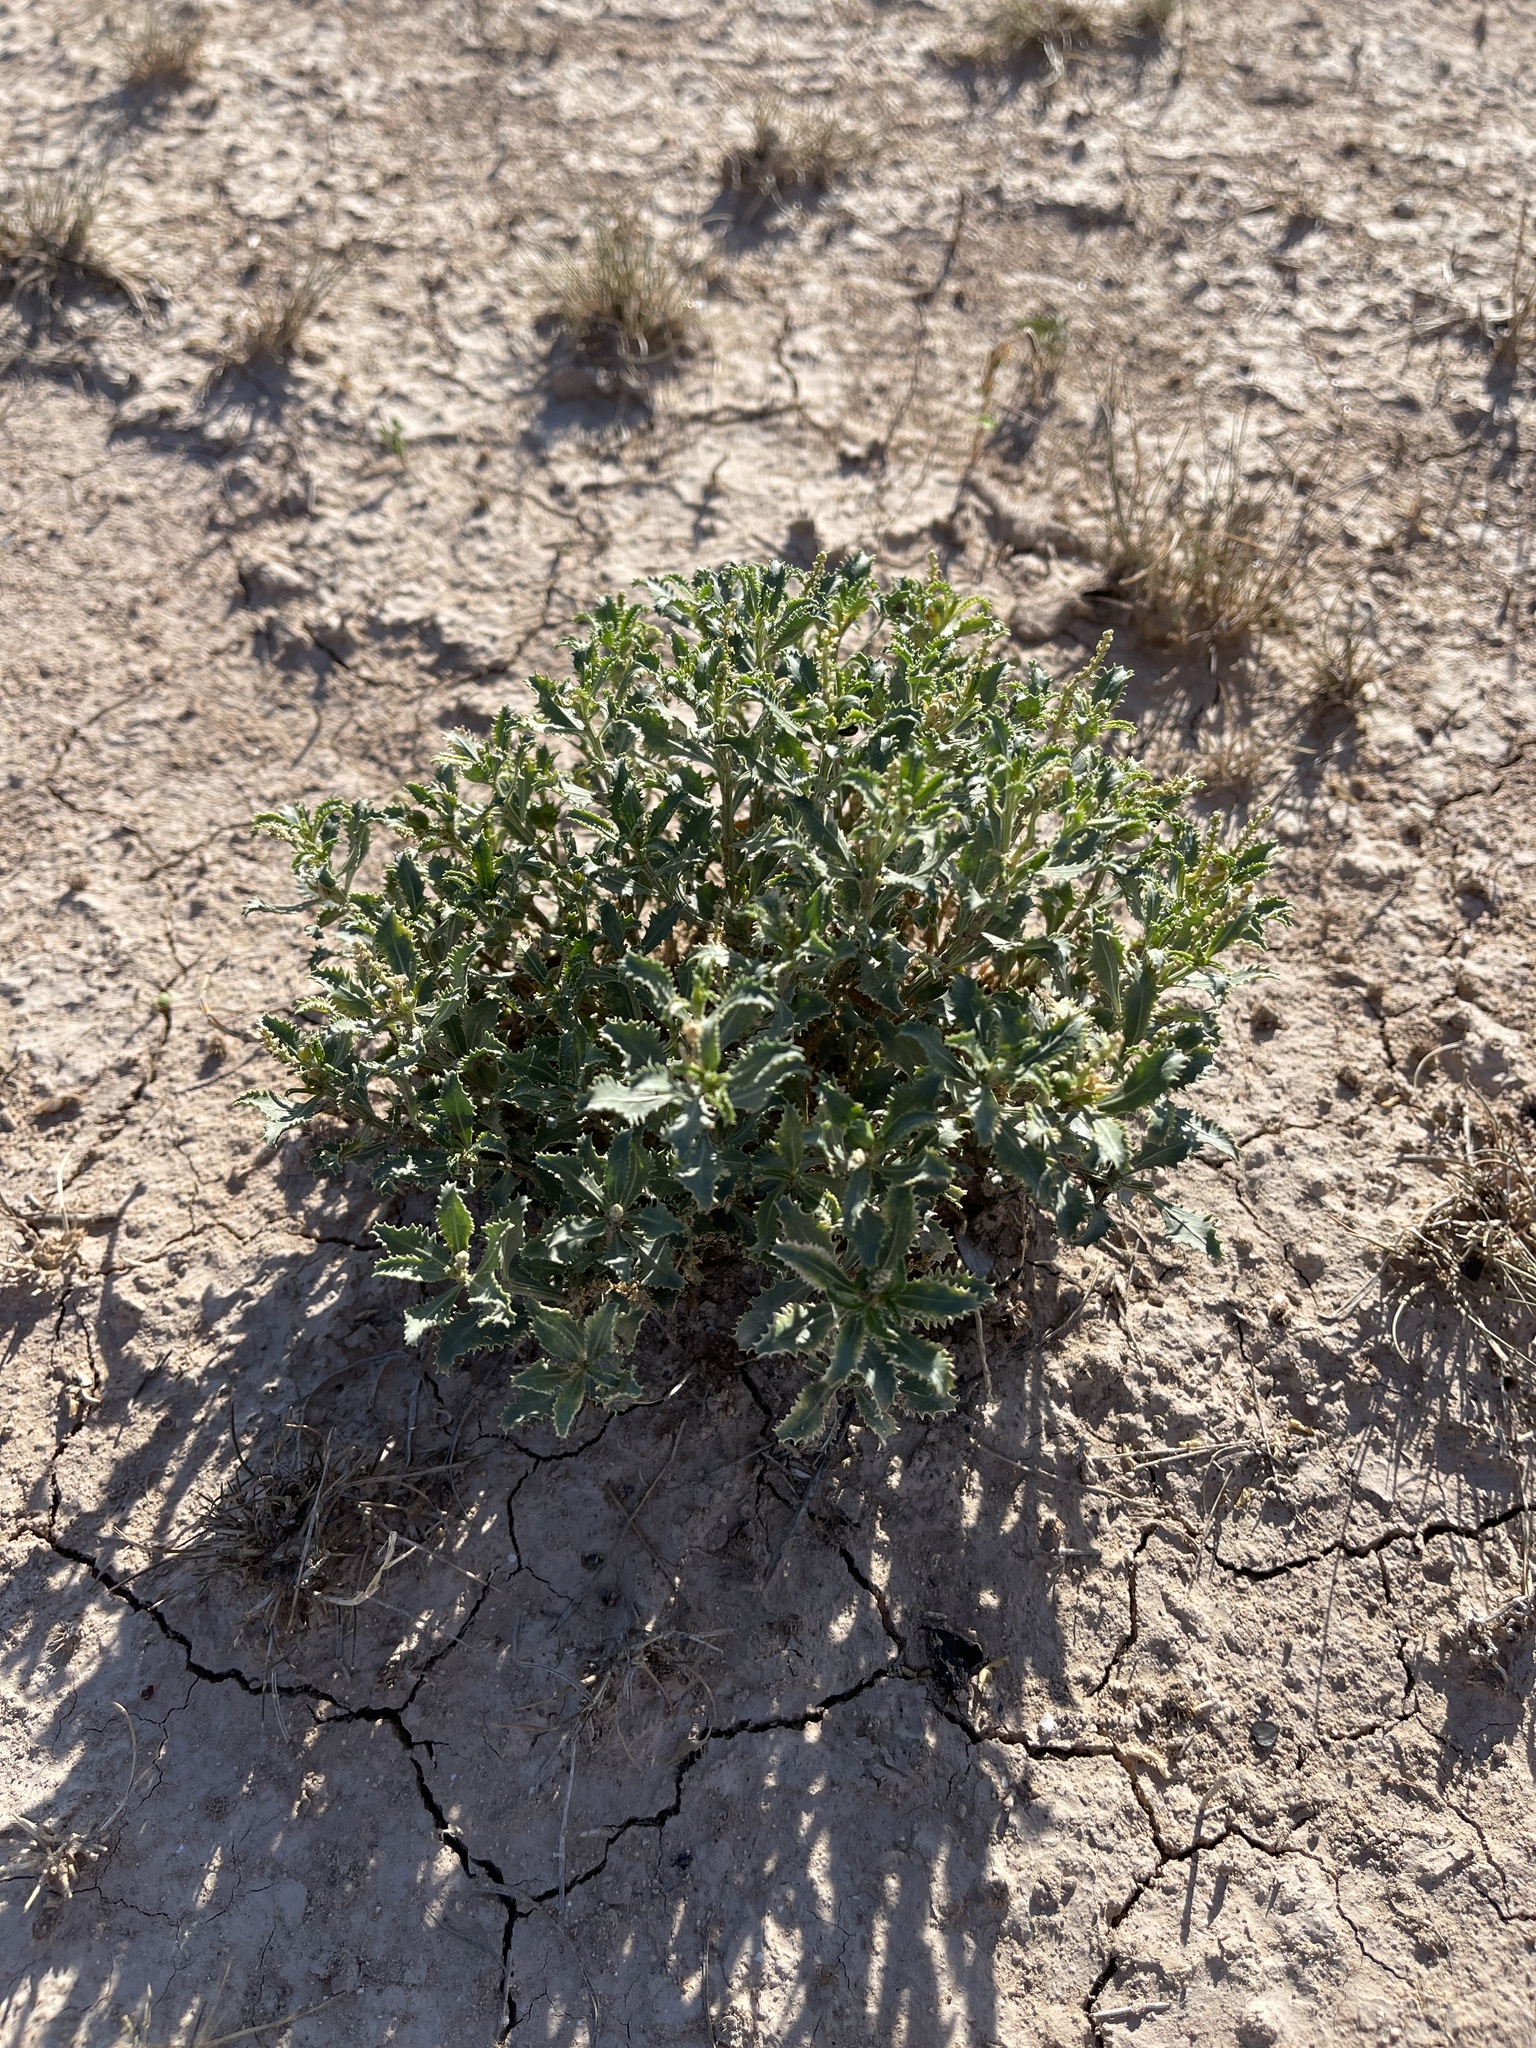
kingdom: Plantae
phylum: Tracheophyta
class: Magnoliopsida
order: Malpighiales
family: Euphorbiaceae
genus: Stillingia
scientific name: Stillingia treculiana
